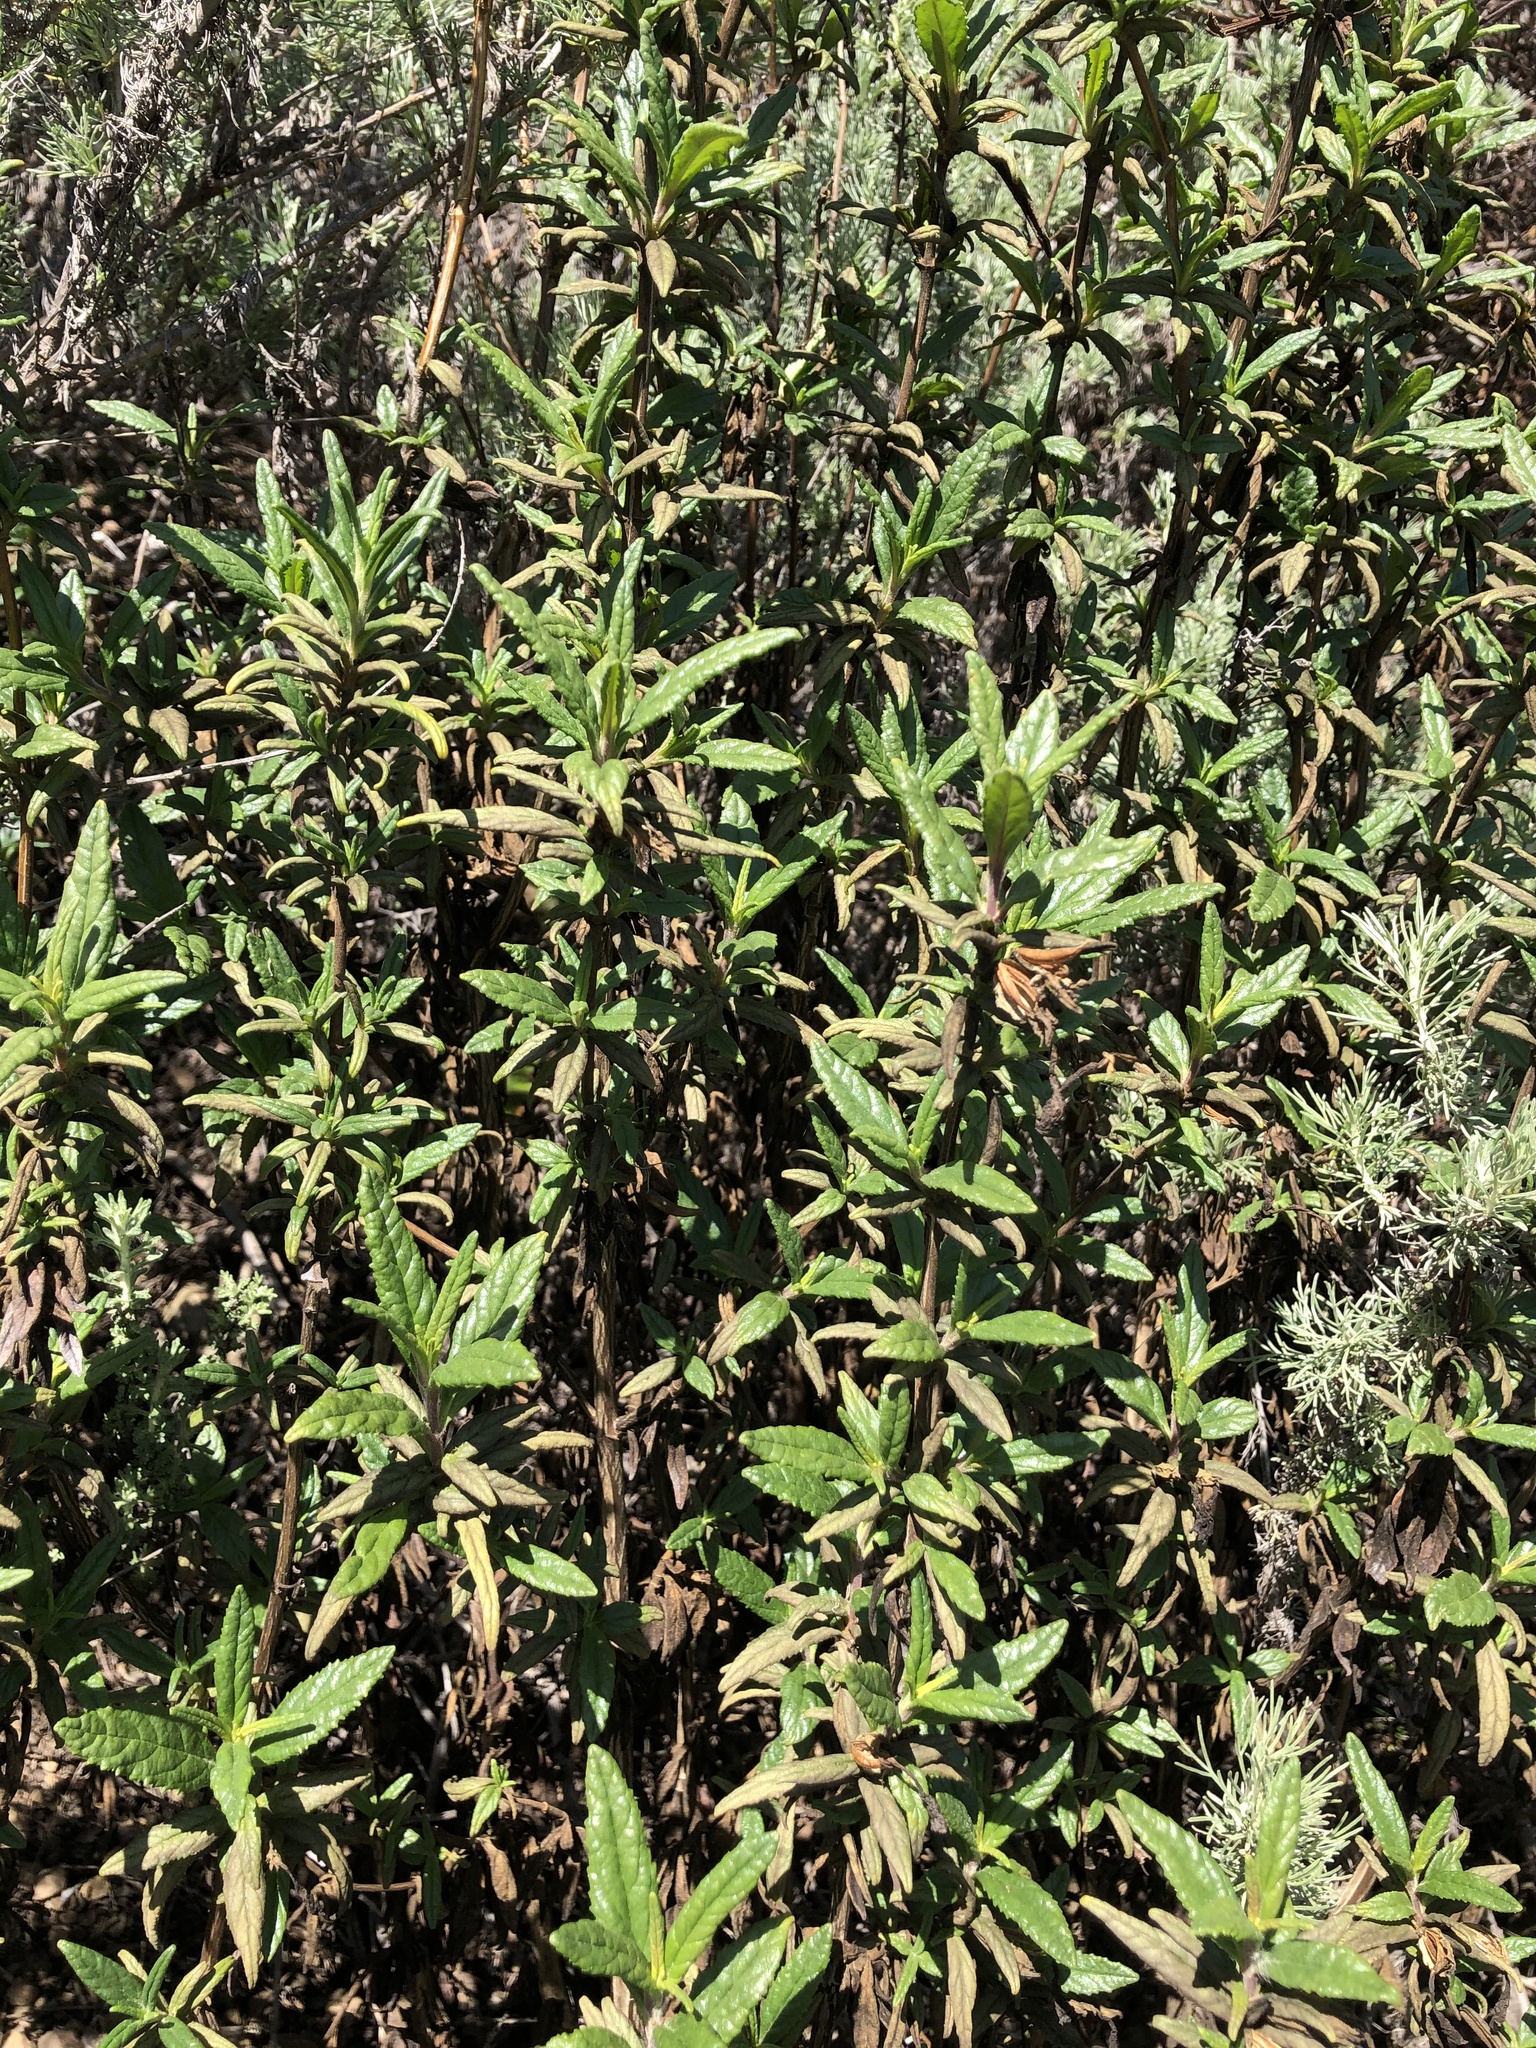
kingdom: Plantae
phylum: Tracheophyta
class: Magnoliopsida
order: Lamiales
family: Phrymaceae
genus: Diplacus
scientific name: Diplacus aurantiacus
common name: Bush monkey-flower
